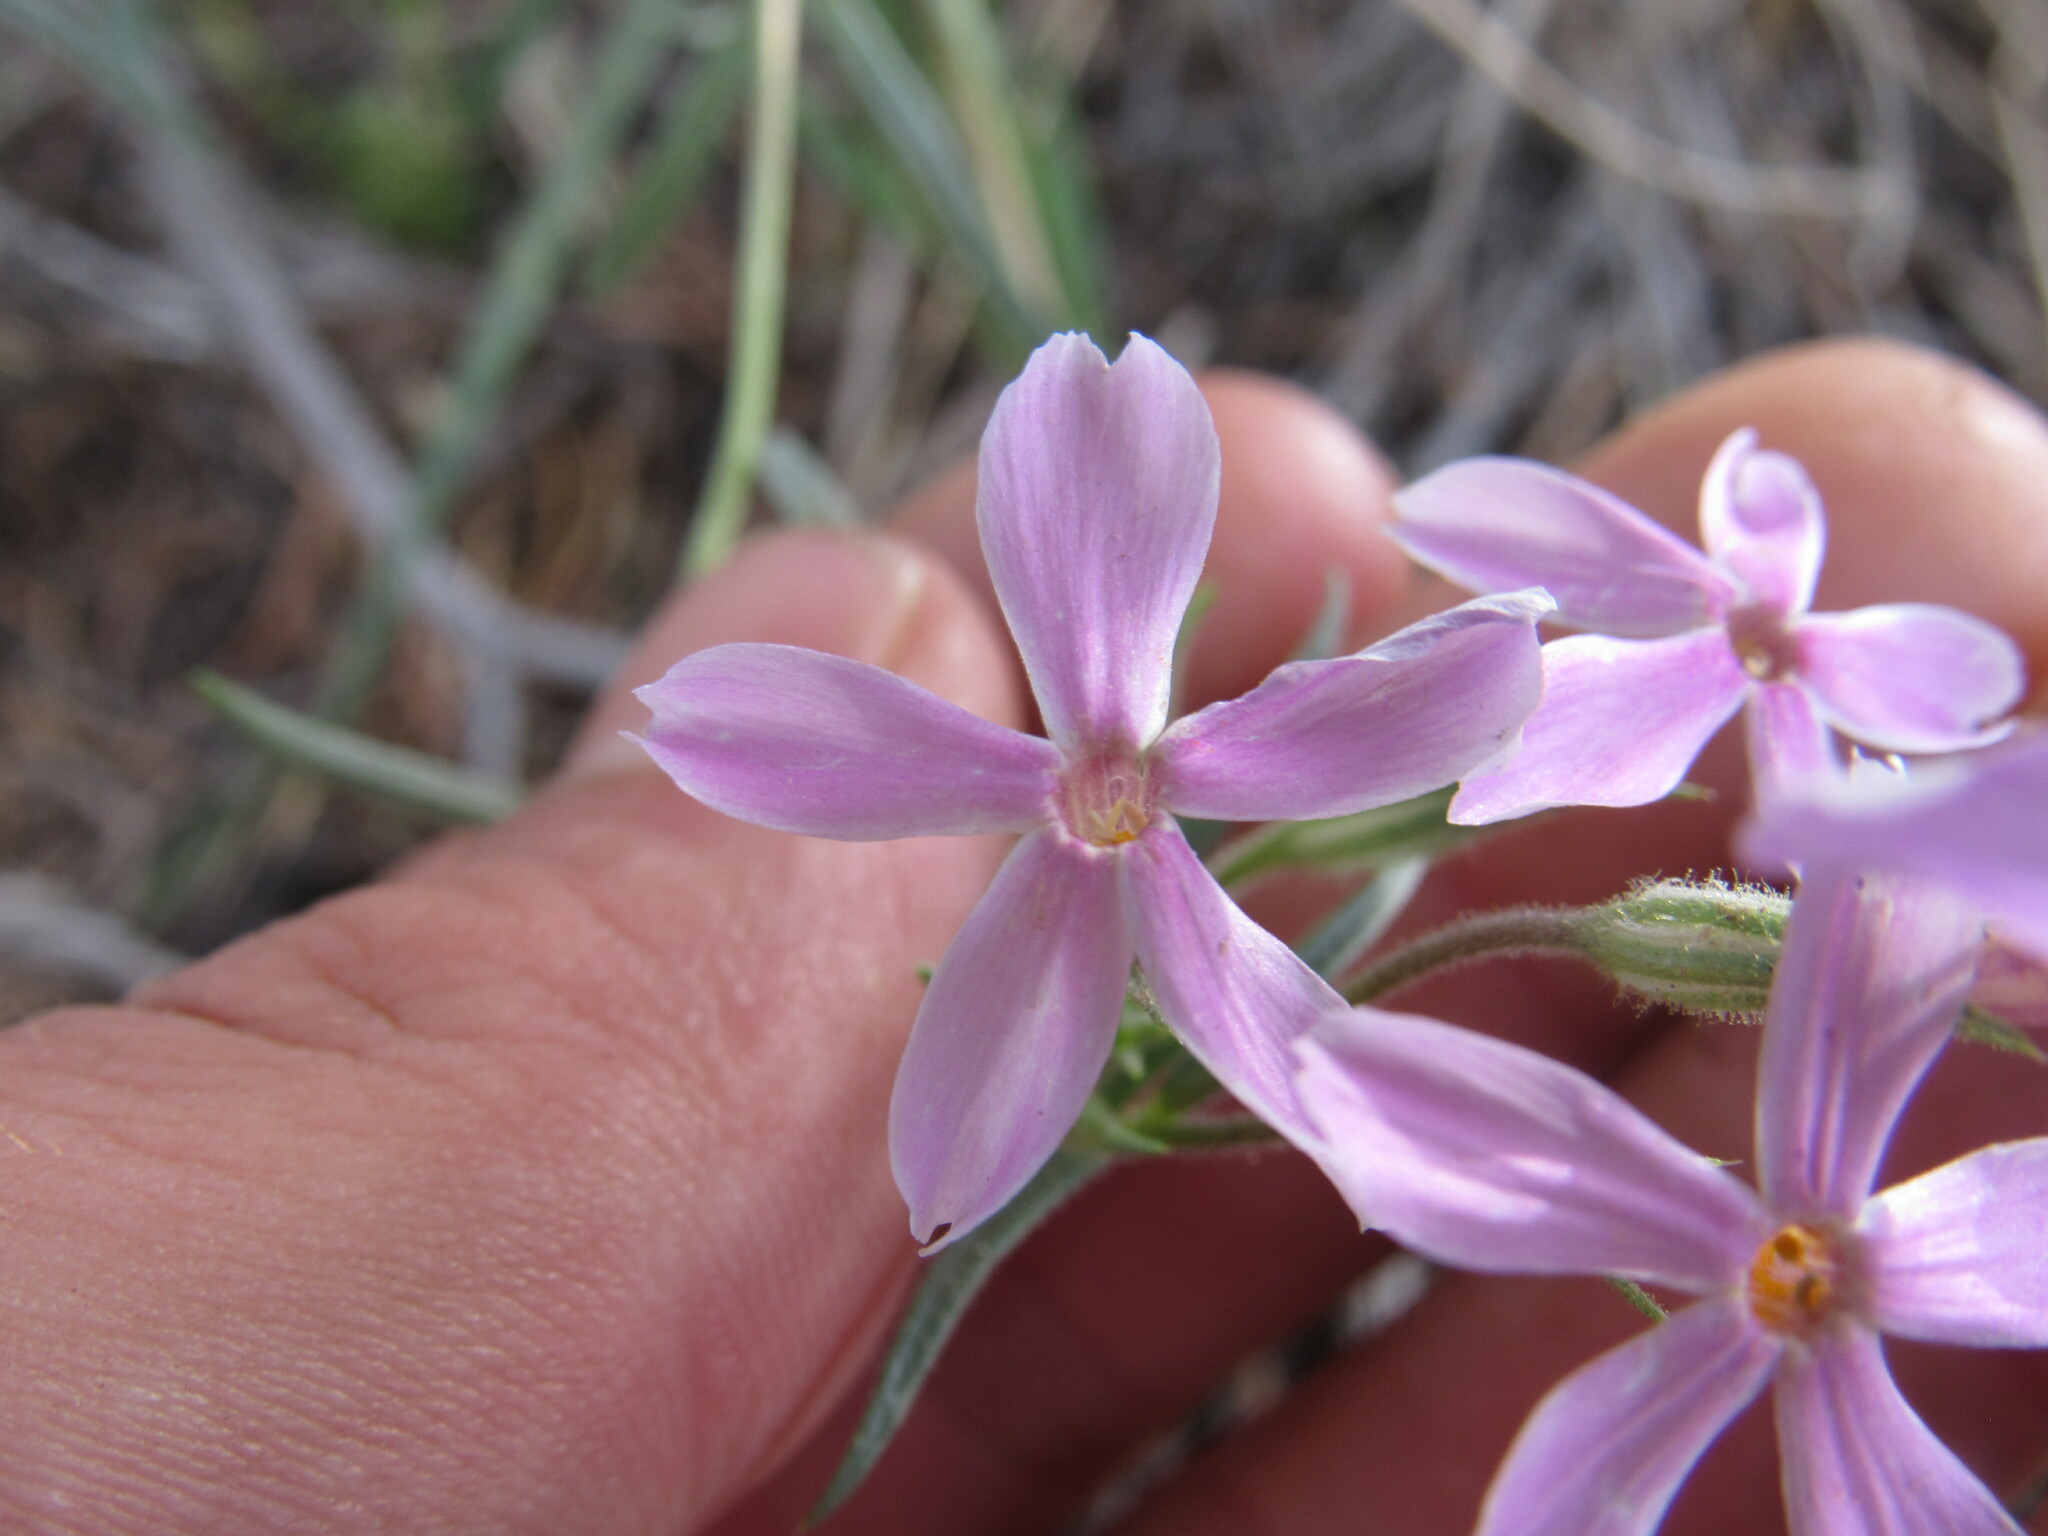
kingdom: Plantae
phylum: Tracheophyta
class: Magnoliopsida
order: Ericales
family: Polemoniaceae
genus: Phlox
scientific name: Phlox longifolia
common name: Longleaf phlox
